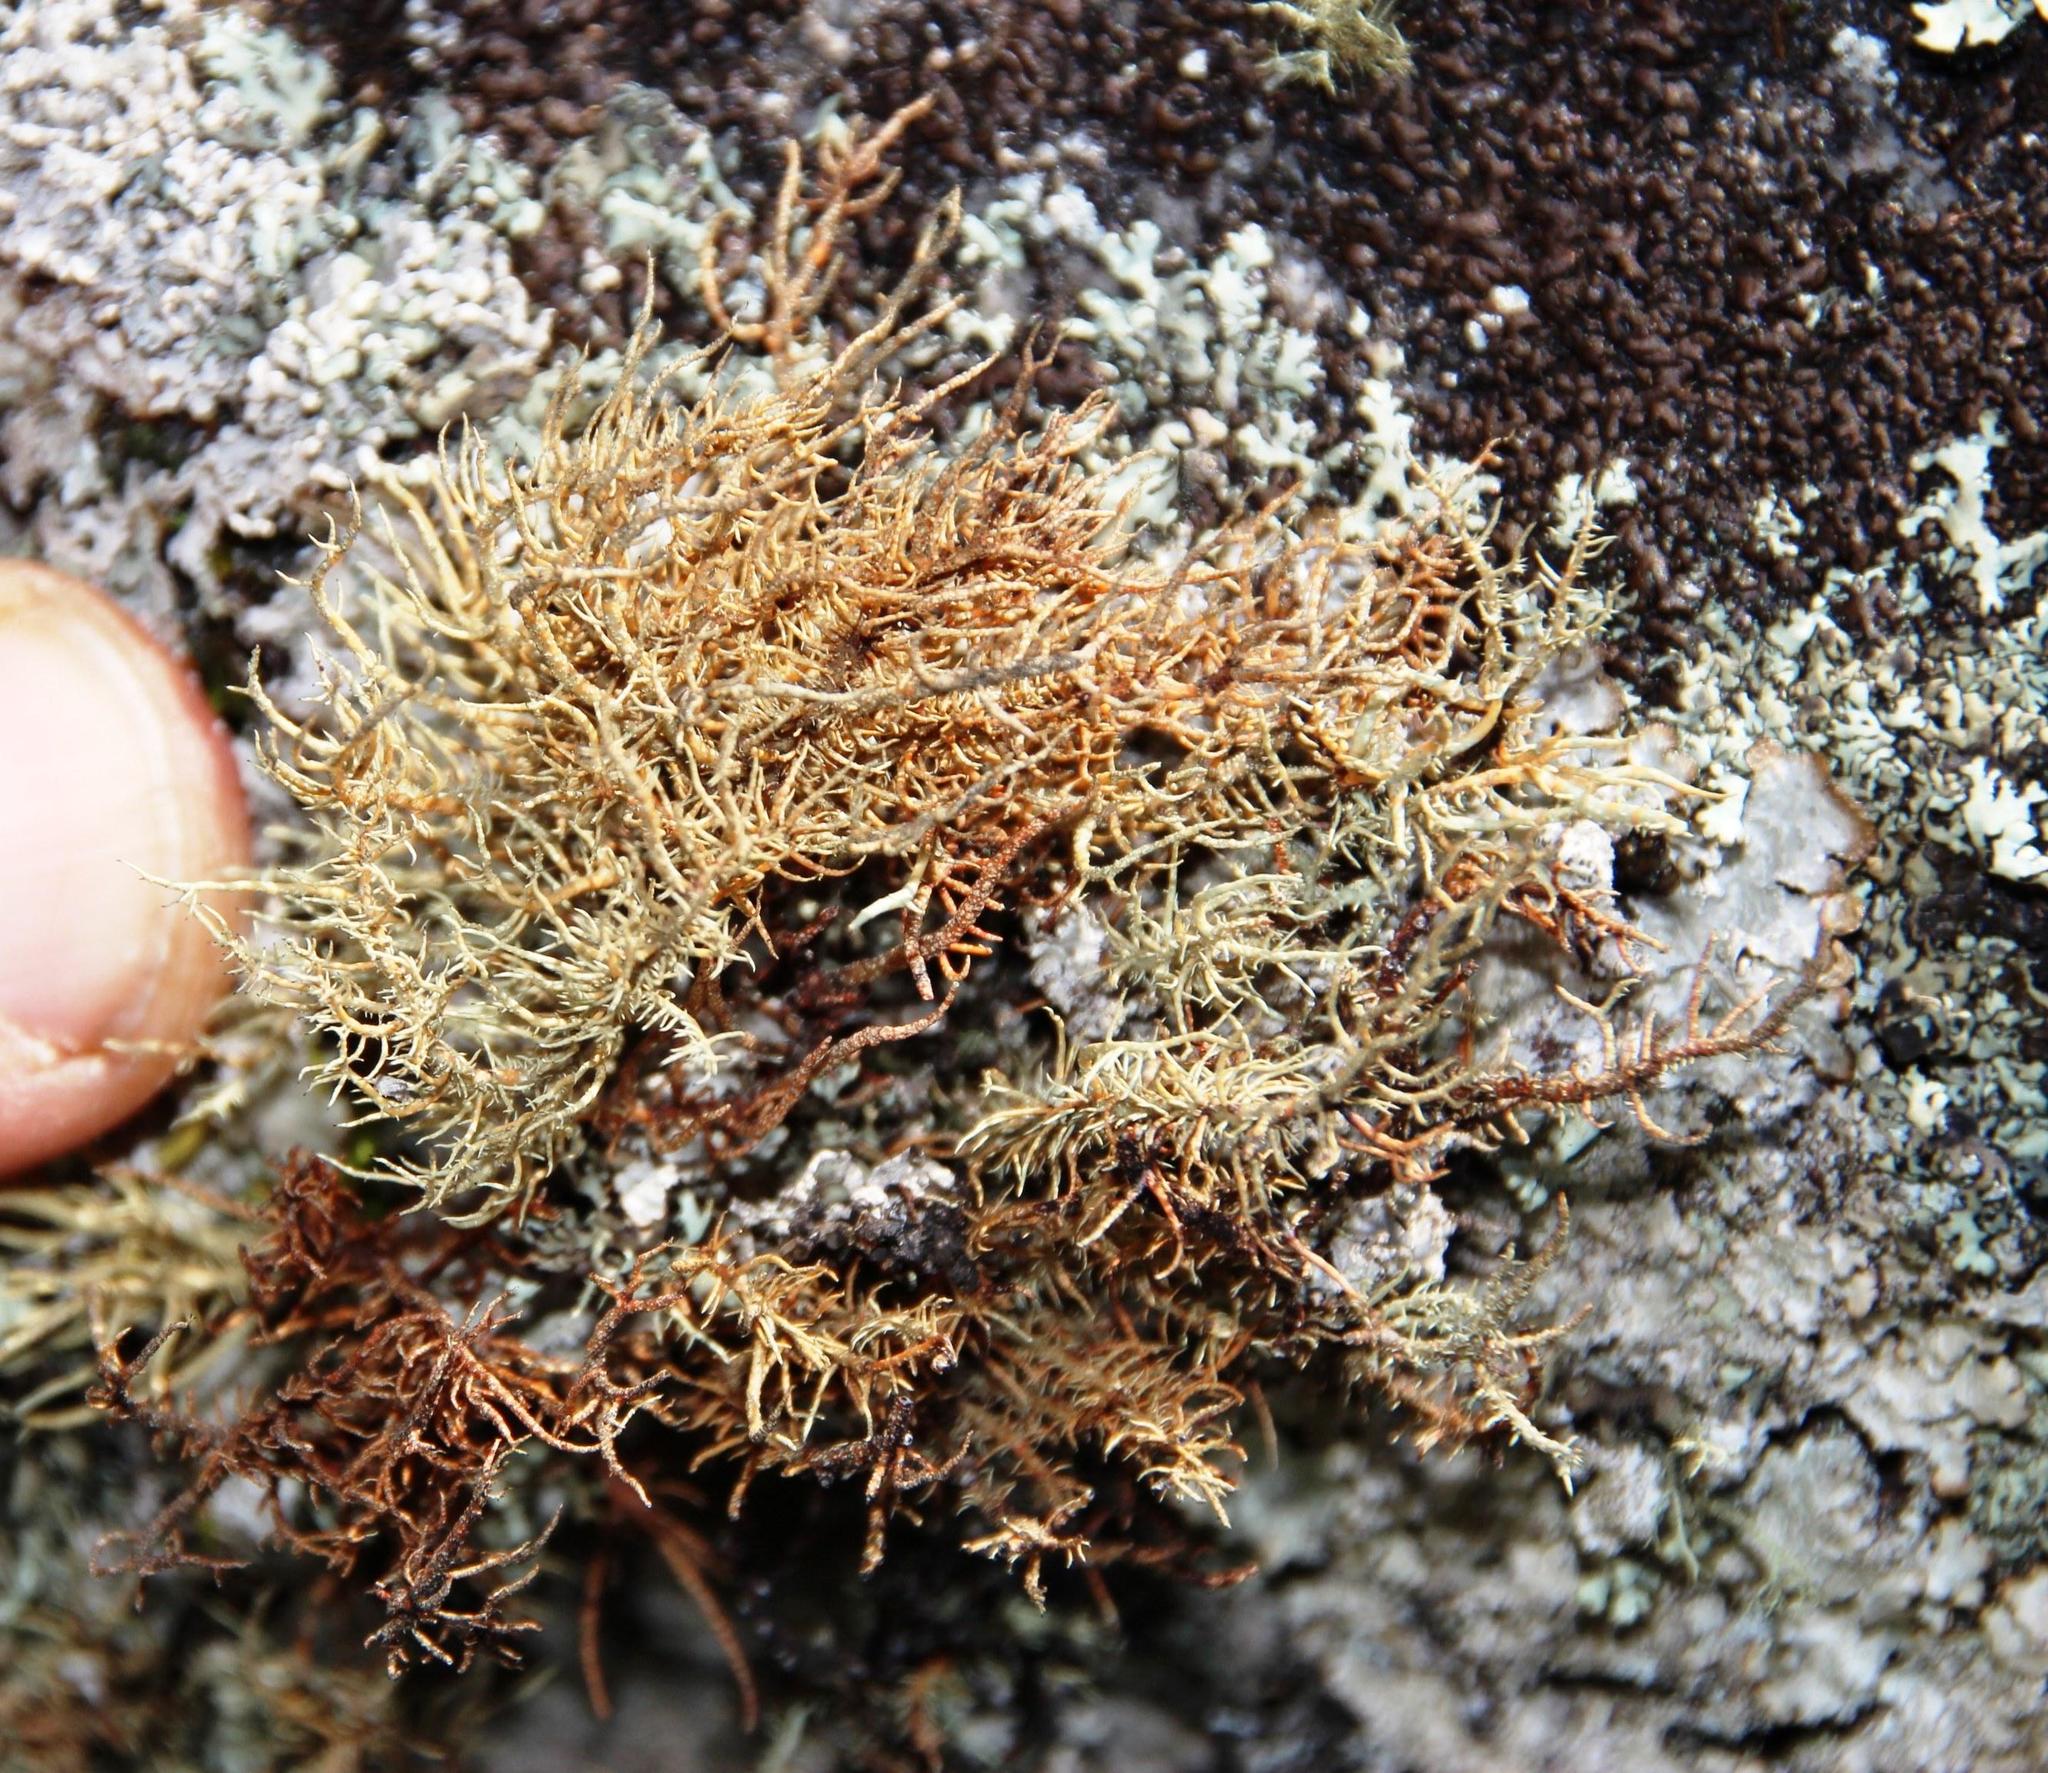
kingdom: Fungi
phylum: Ascomycota
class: Lecanoromycetes
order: Lecanorales
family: Parmeliaceae
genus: Usnea
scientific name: Usnea maculata
